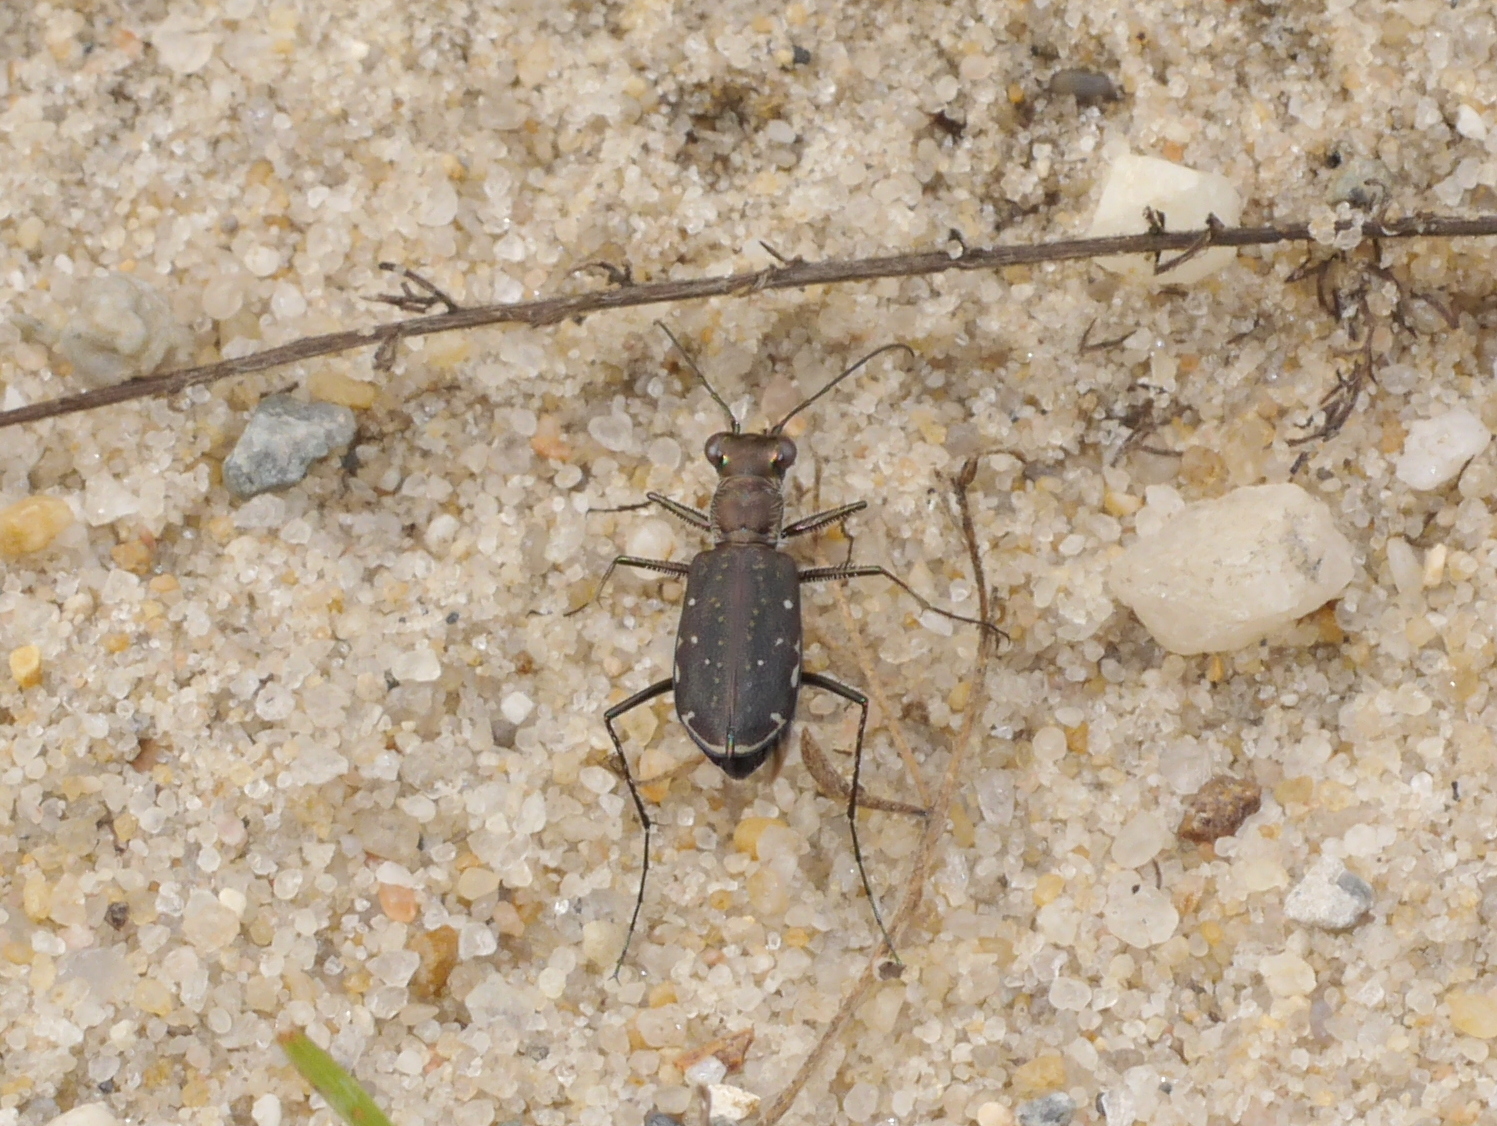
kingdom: Animalia
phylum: Arthropoda
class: Insecta
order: Coleoptera
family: Carabidae
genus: Cicindela
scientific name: Cicindela punctulata
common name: Punctured tiger beetle
